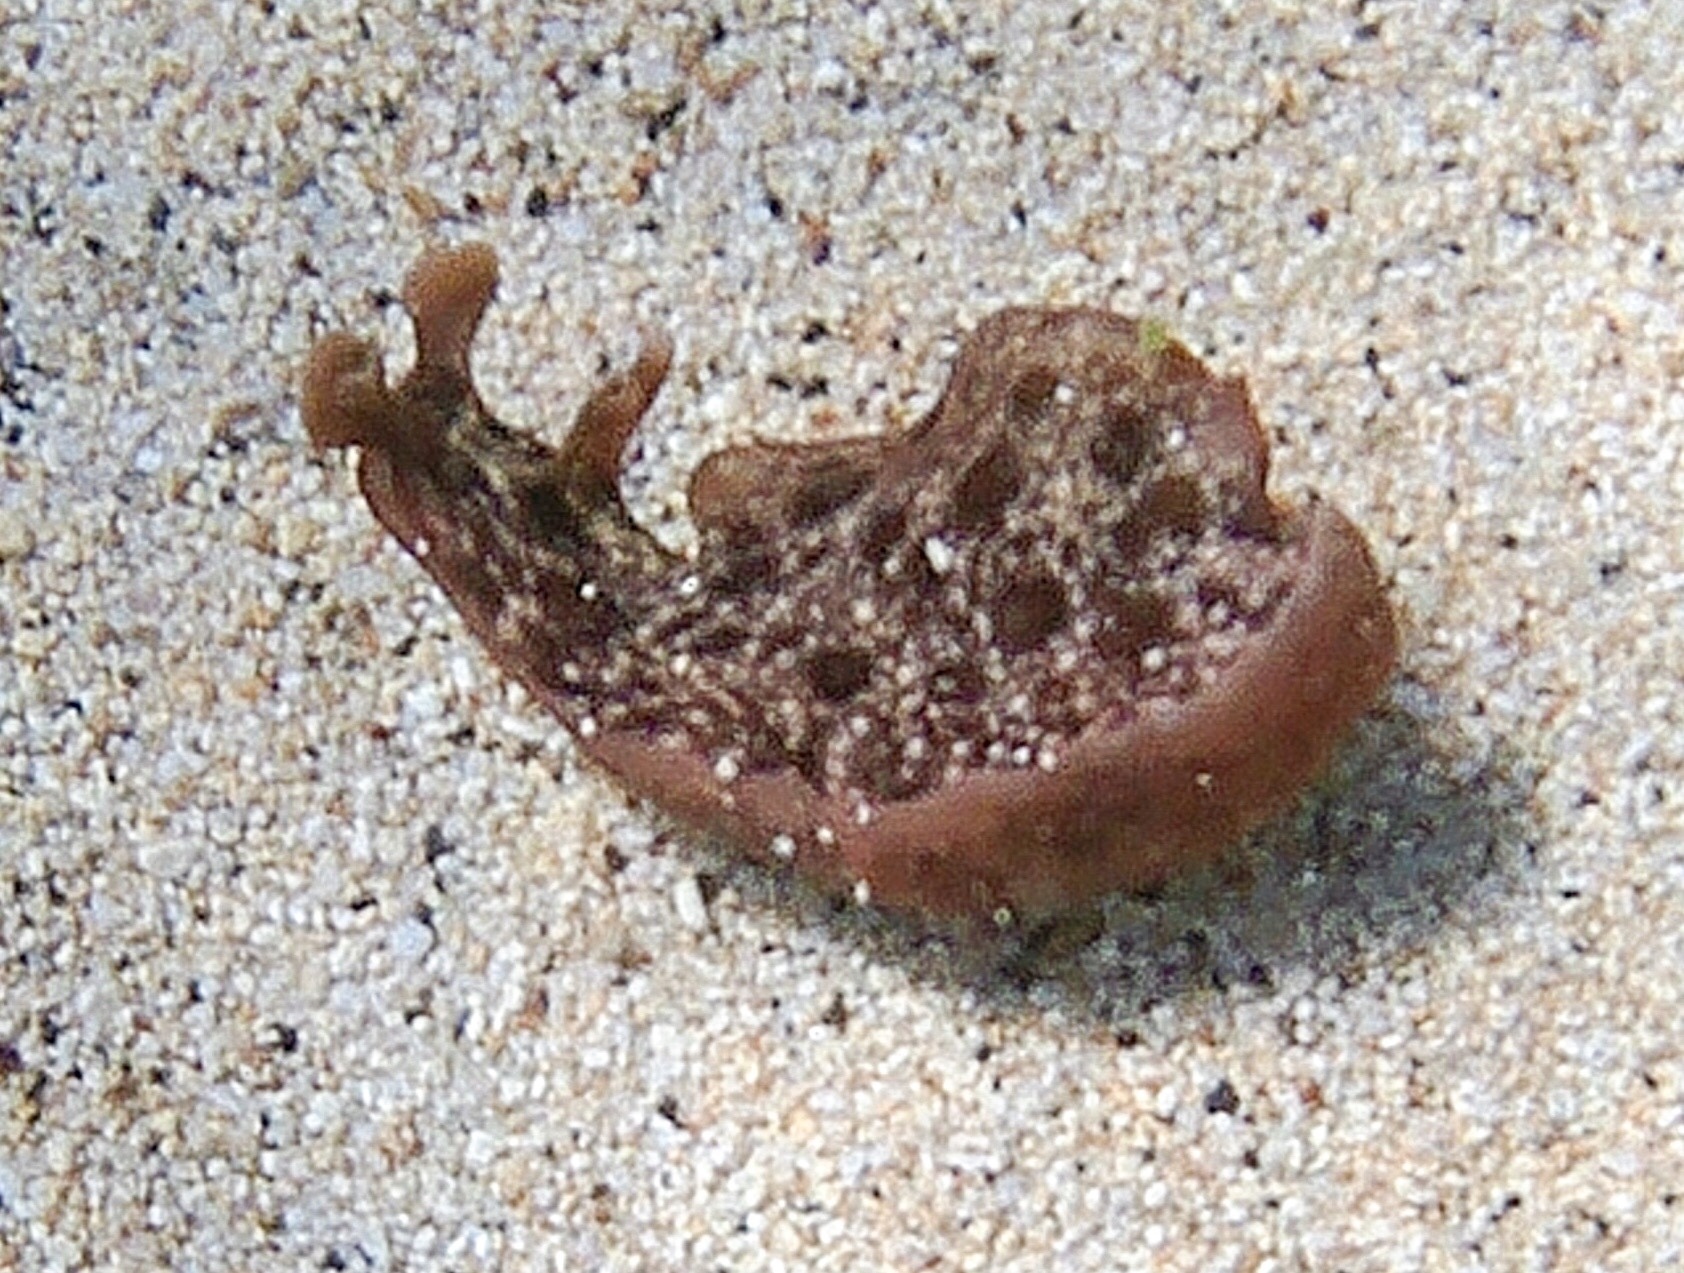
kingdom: Animalia
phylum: Mollusca
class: Gastropoda
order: Aplysiida
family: Aplysiidae
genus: Aplysia
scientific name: Aplysia argus
